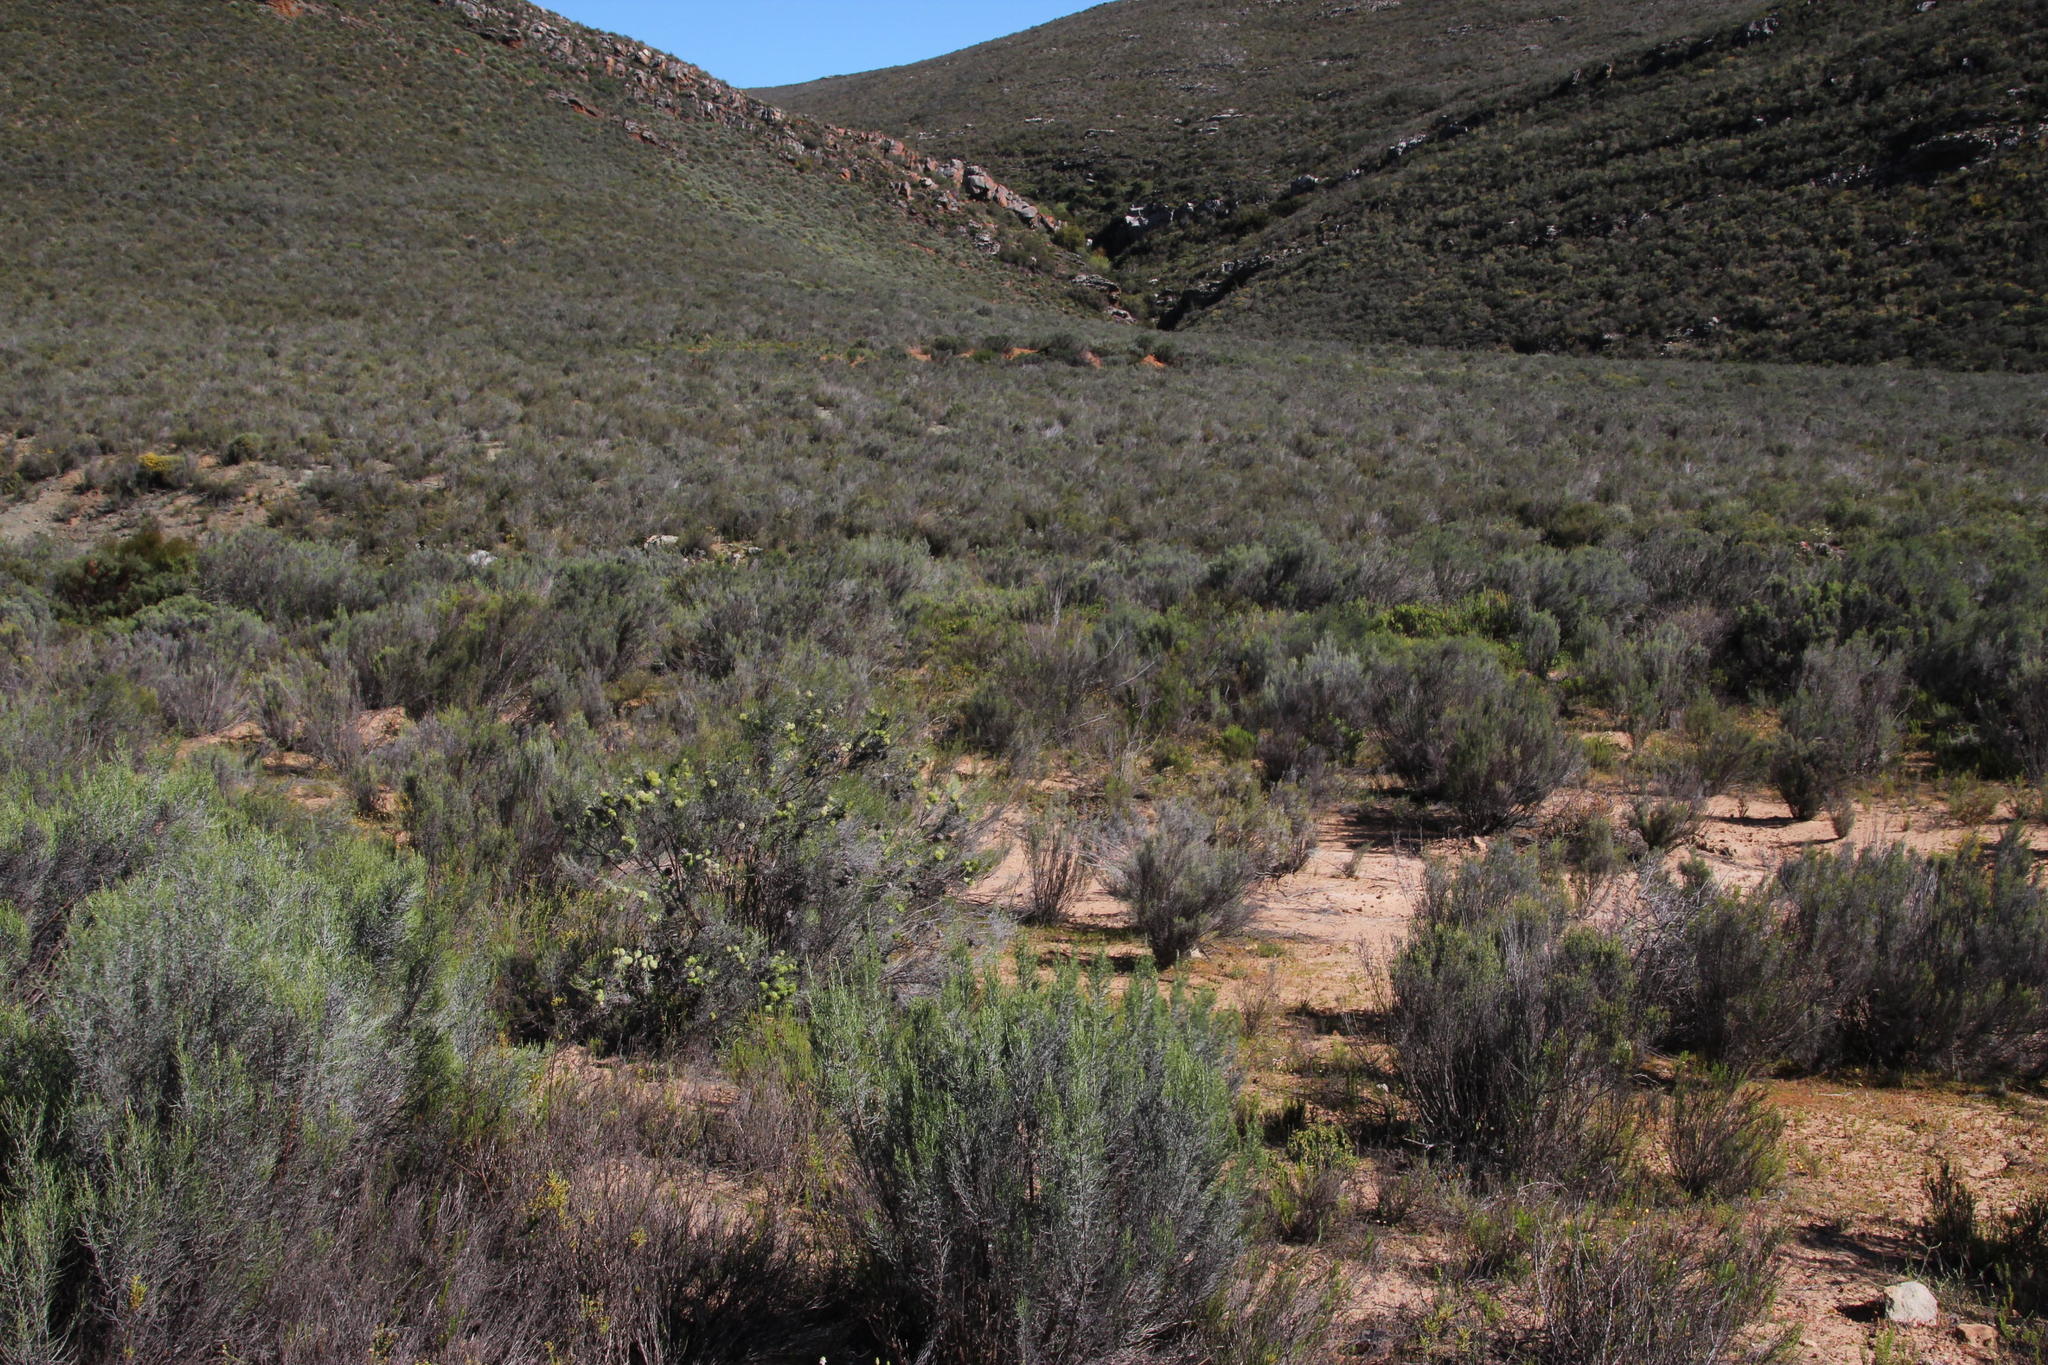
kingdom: Plantae
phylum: Tracheophyta
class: Magnoliopsida
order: Asterales
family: Asteraceae
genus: Dicerothamnus
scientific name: Dicerothamnus rhinocerotis
